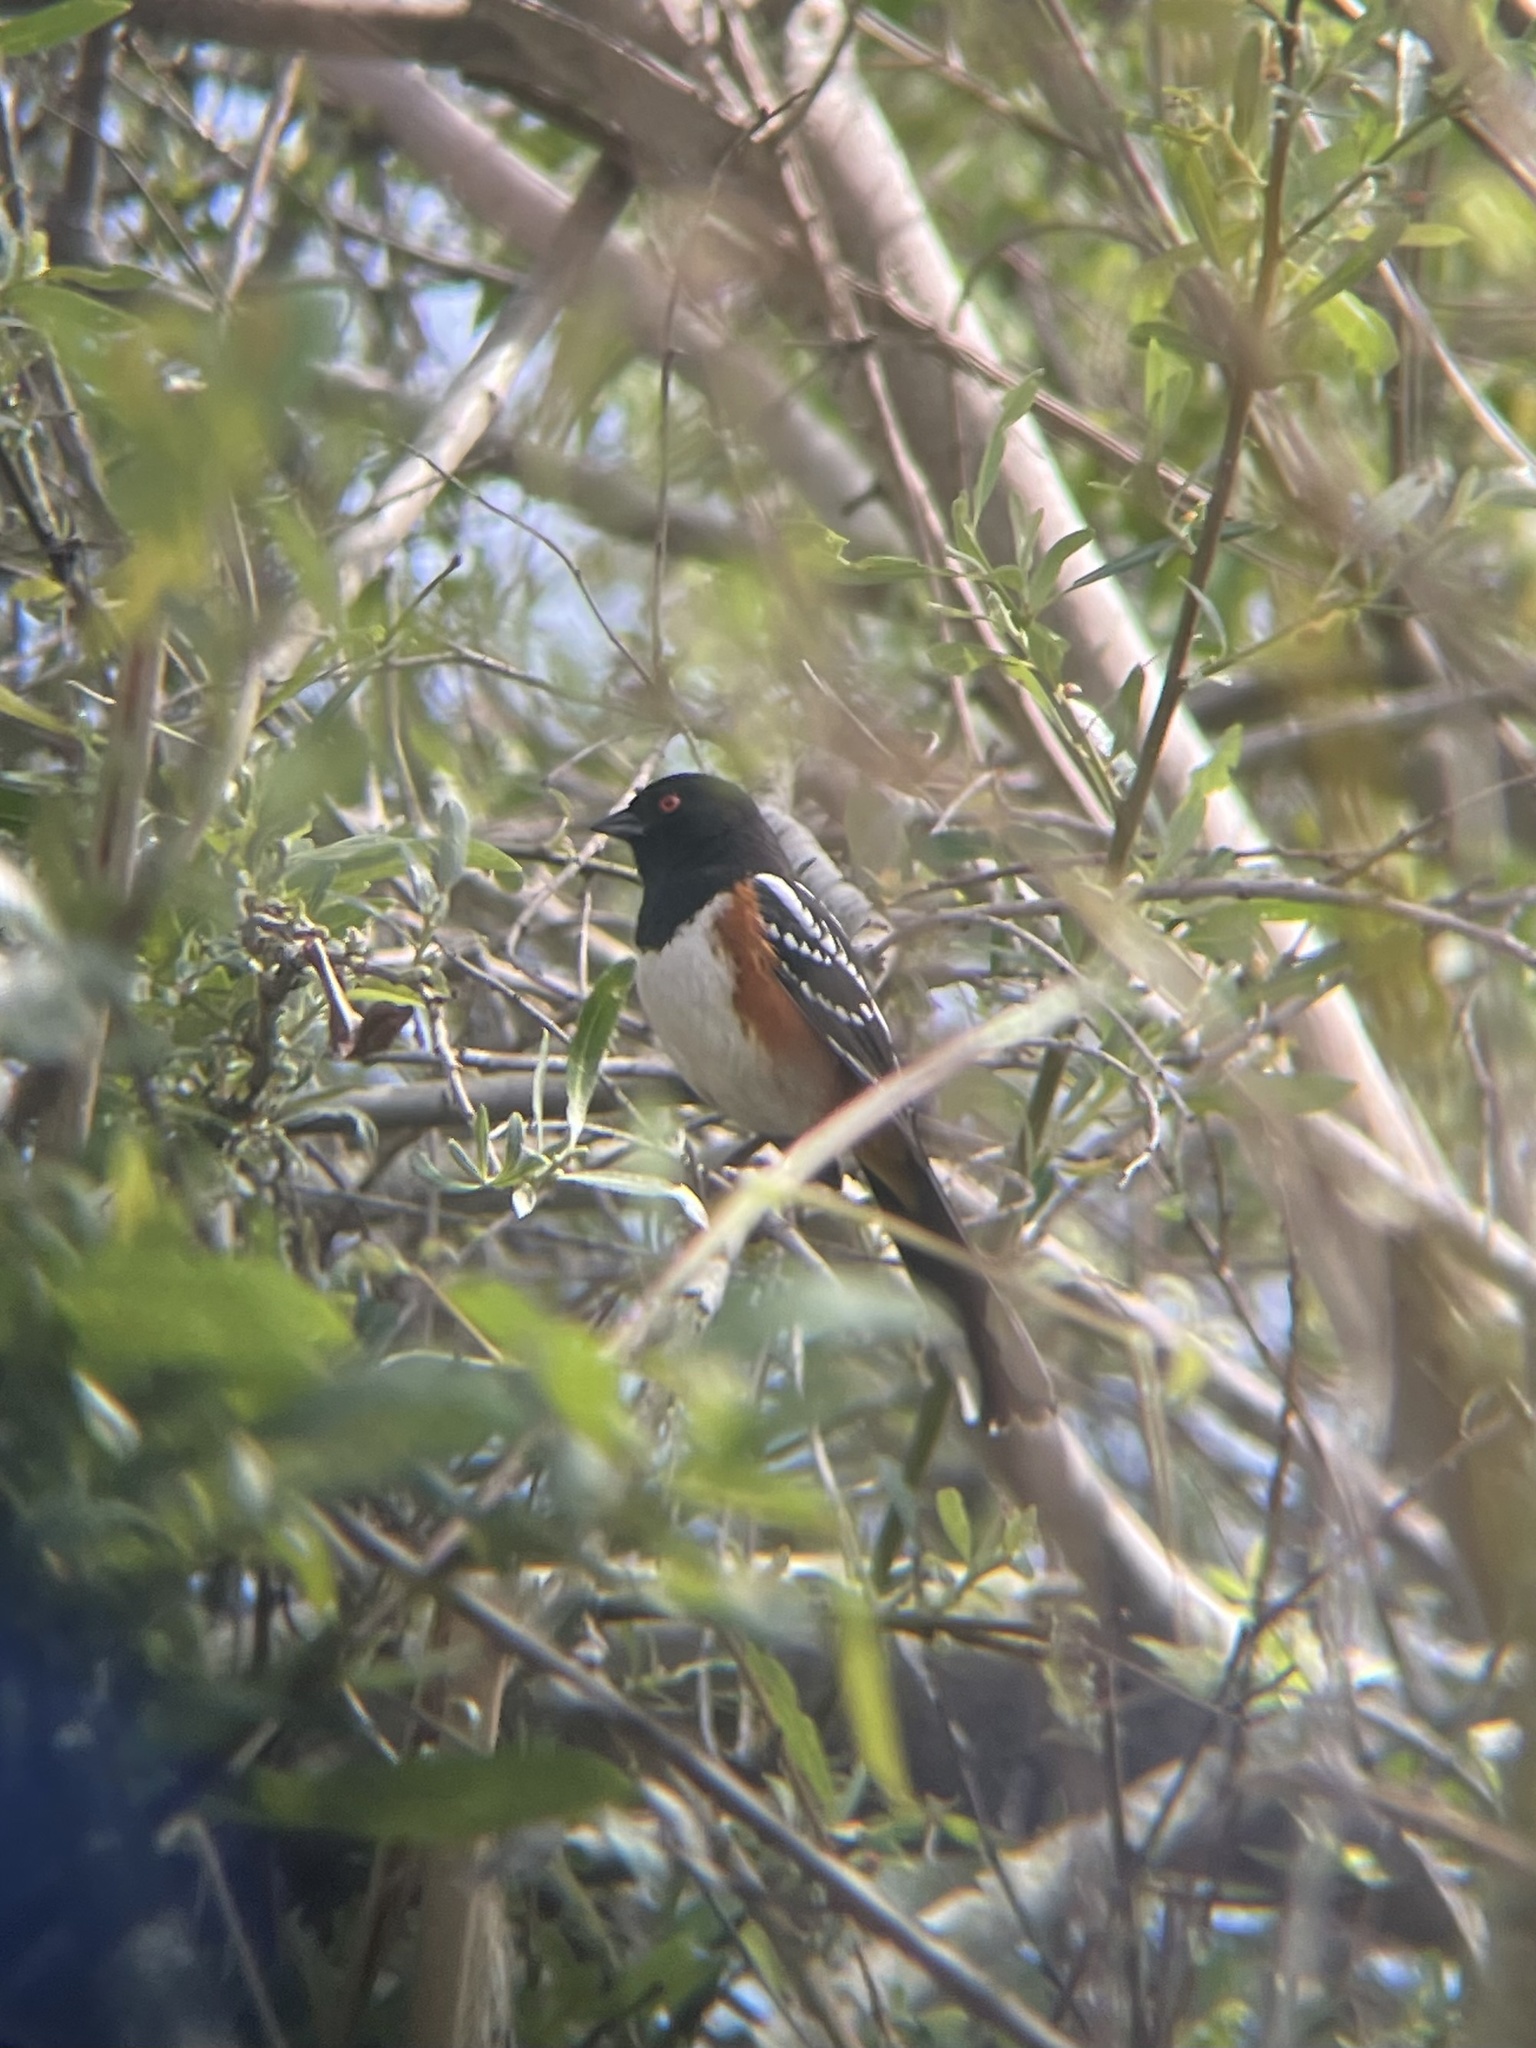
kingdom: Animalia
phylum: Chordata
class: Aves
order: Passeriformes
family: Passerellidae
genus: Pipilo
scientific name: Pipilo maculatus
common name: Spotted towhee
